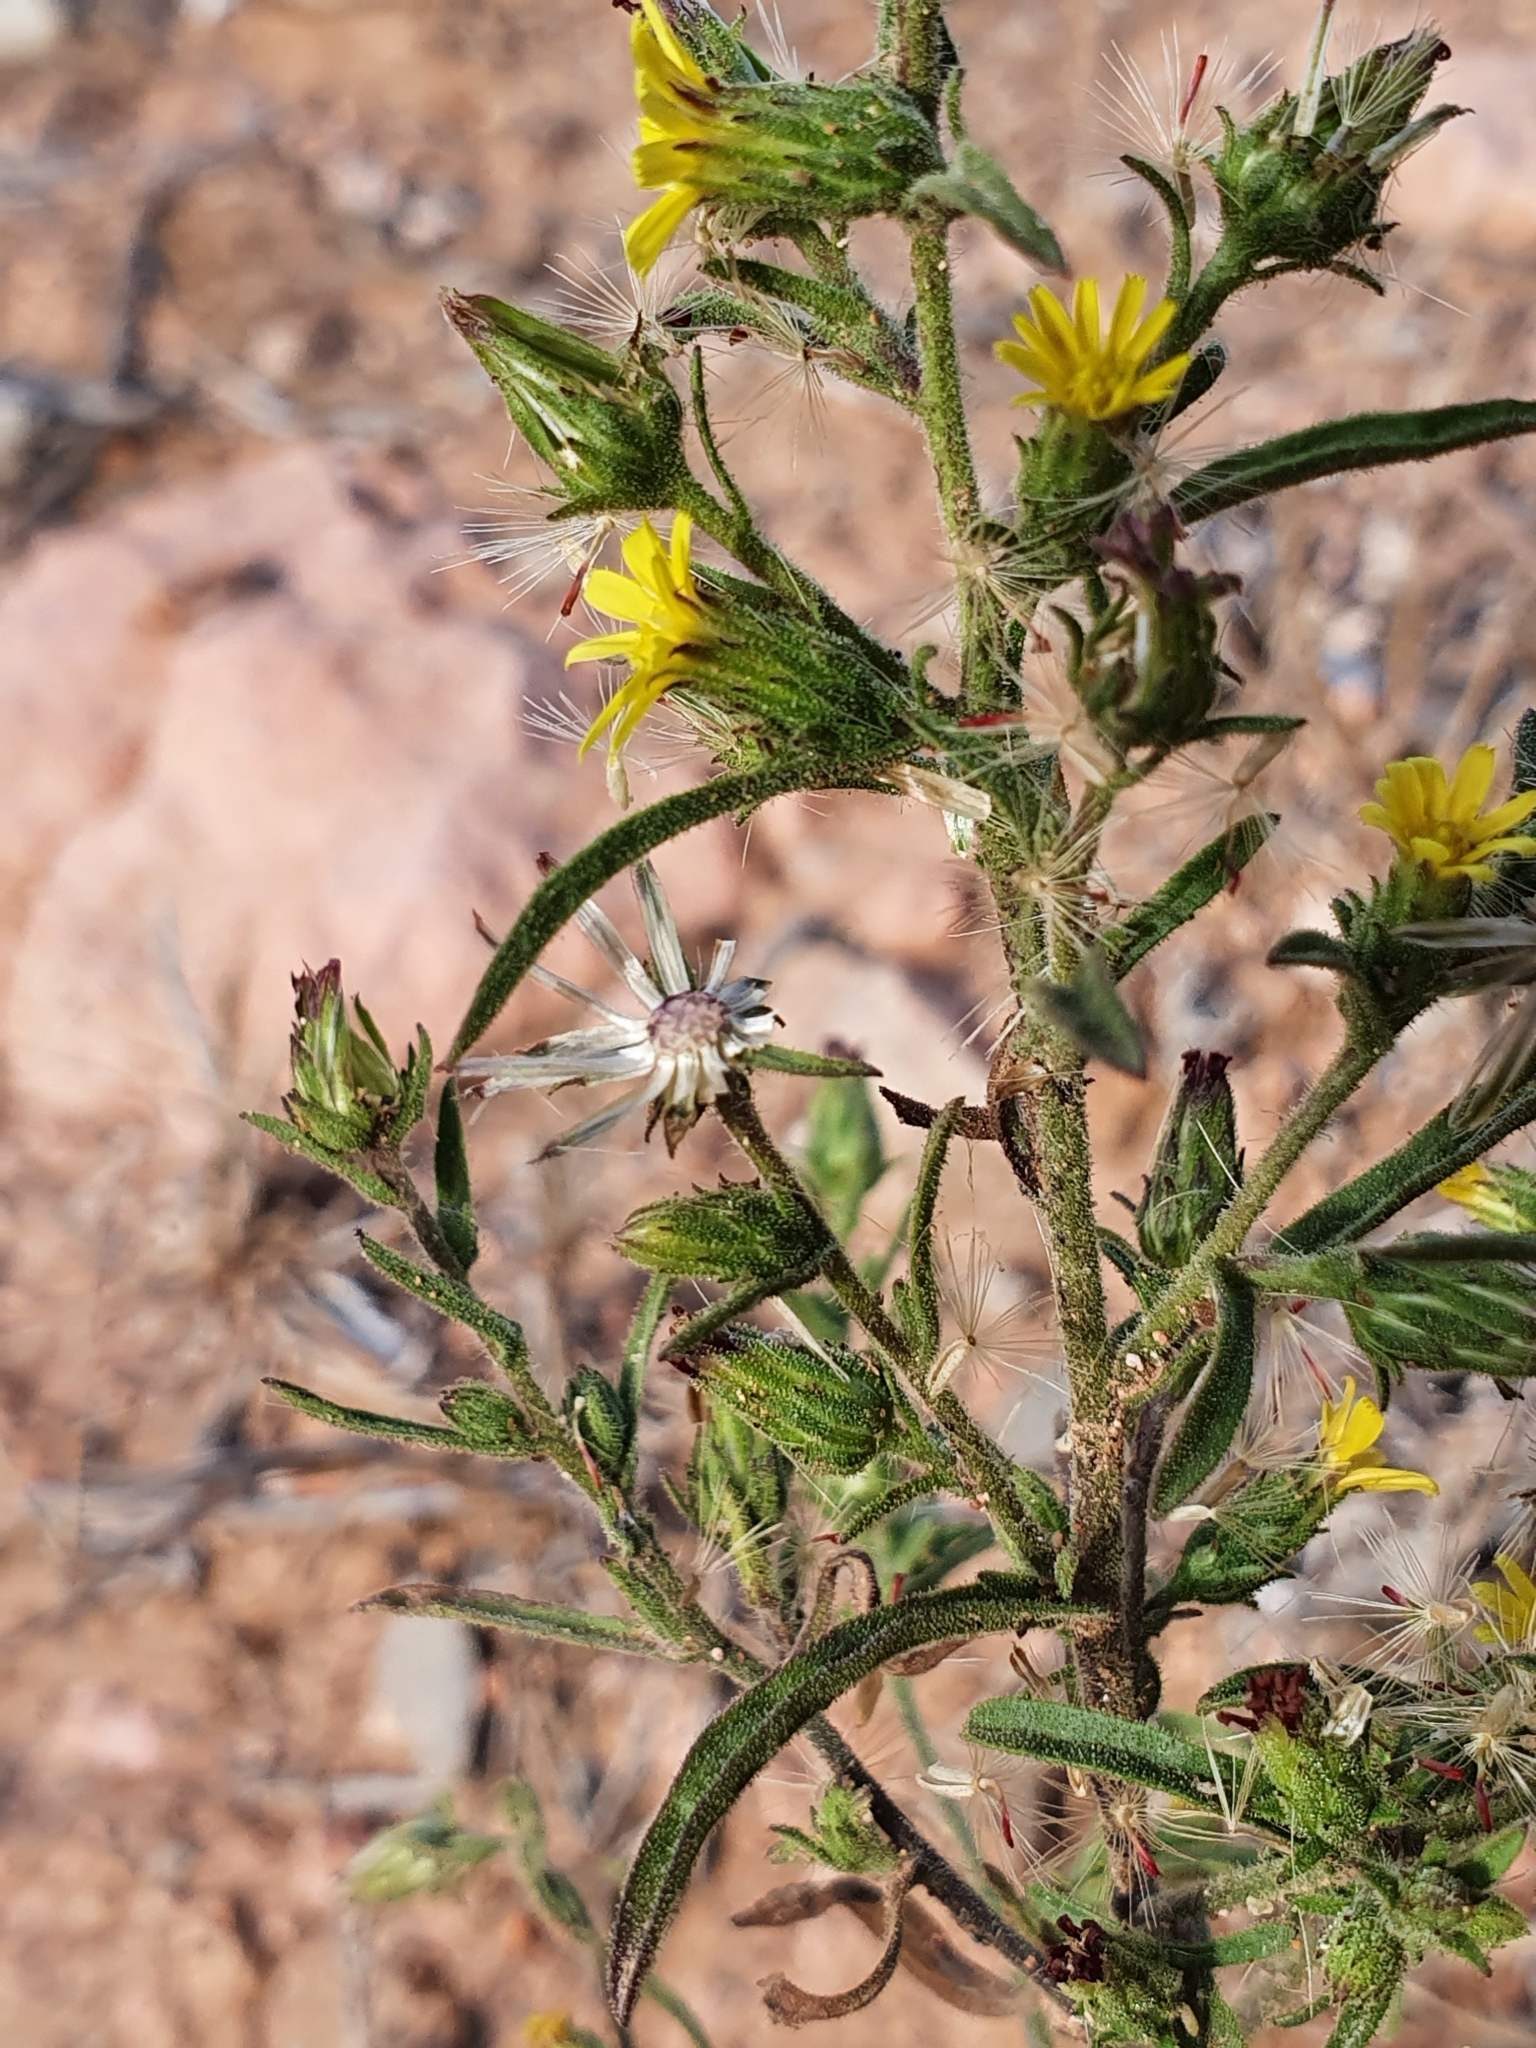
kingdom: Plantae
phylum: Tracheophyta
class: Magnoliopsida
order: Asterales
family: Asteraceae
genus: Dittrichia
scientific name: Dittrichia graveolens
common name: Stinking fleabane
